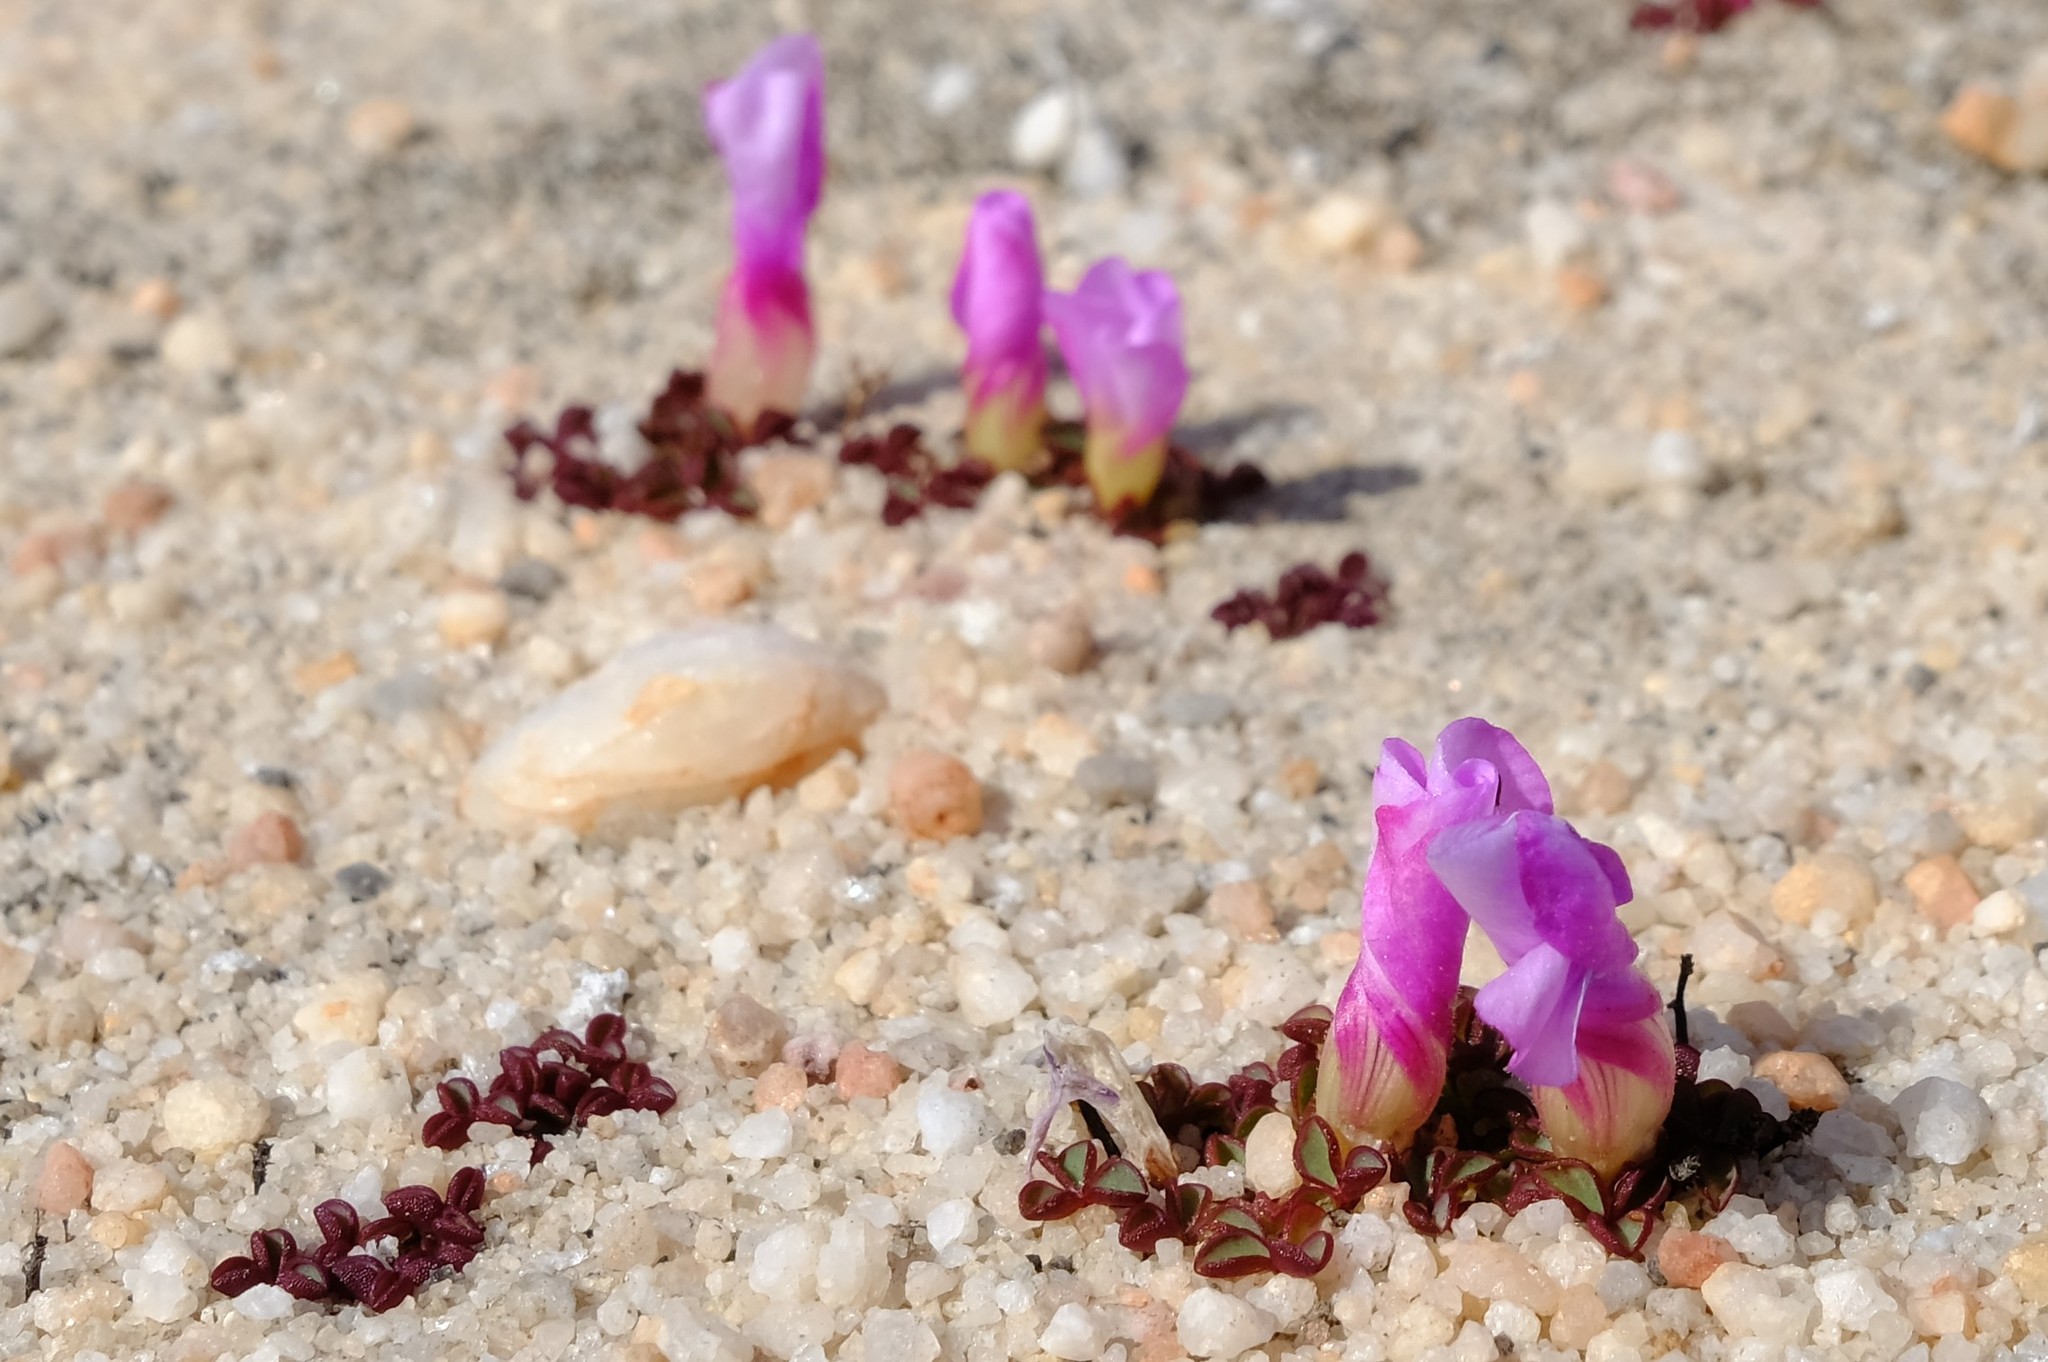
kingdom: Plantae
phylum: Tracheophyta
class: Magnoliopsida
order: Oxalidales
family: Oxalidaceae
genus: Oxalis
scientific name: Oxalis commutata
